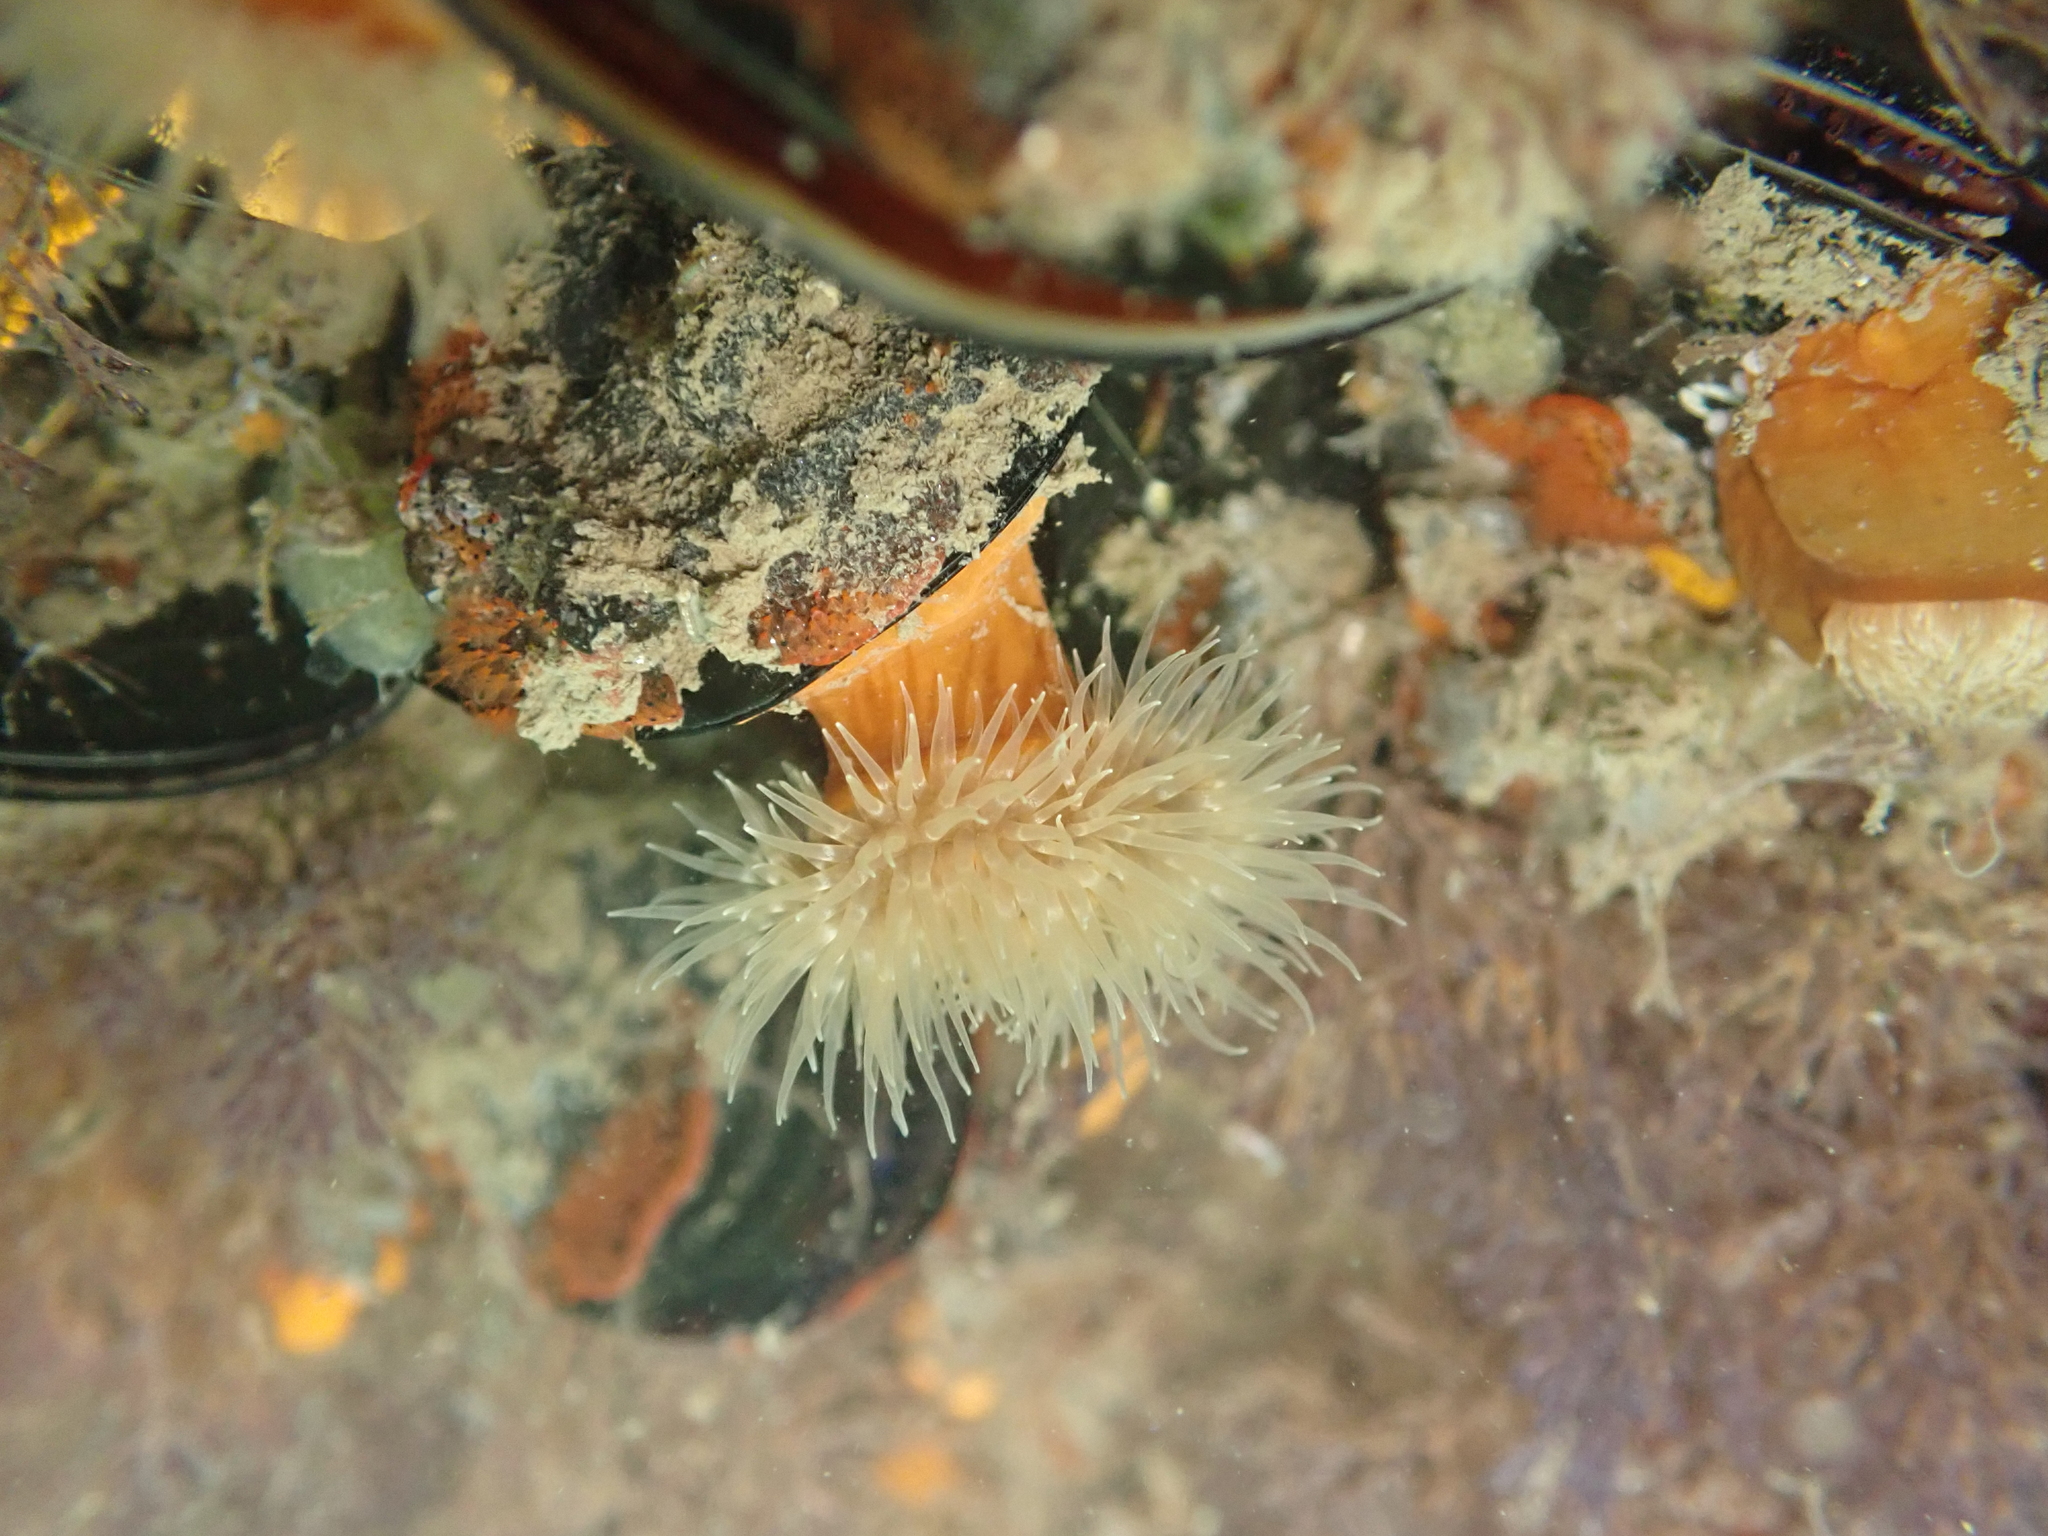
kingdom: Animalia
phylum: Cnidaria
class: Anthozoa
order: Actiniaria
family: Metridiidae
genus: Metridium
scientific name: Metridium senile
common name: Clonal plumose anemone
